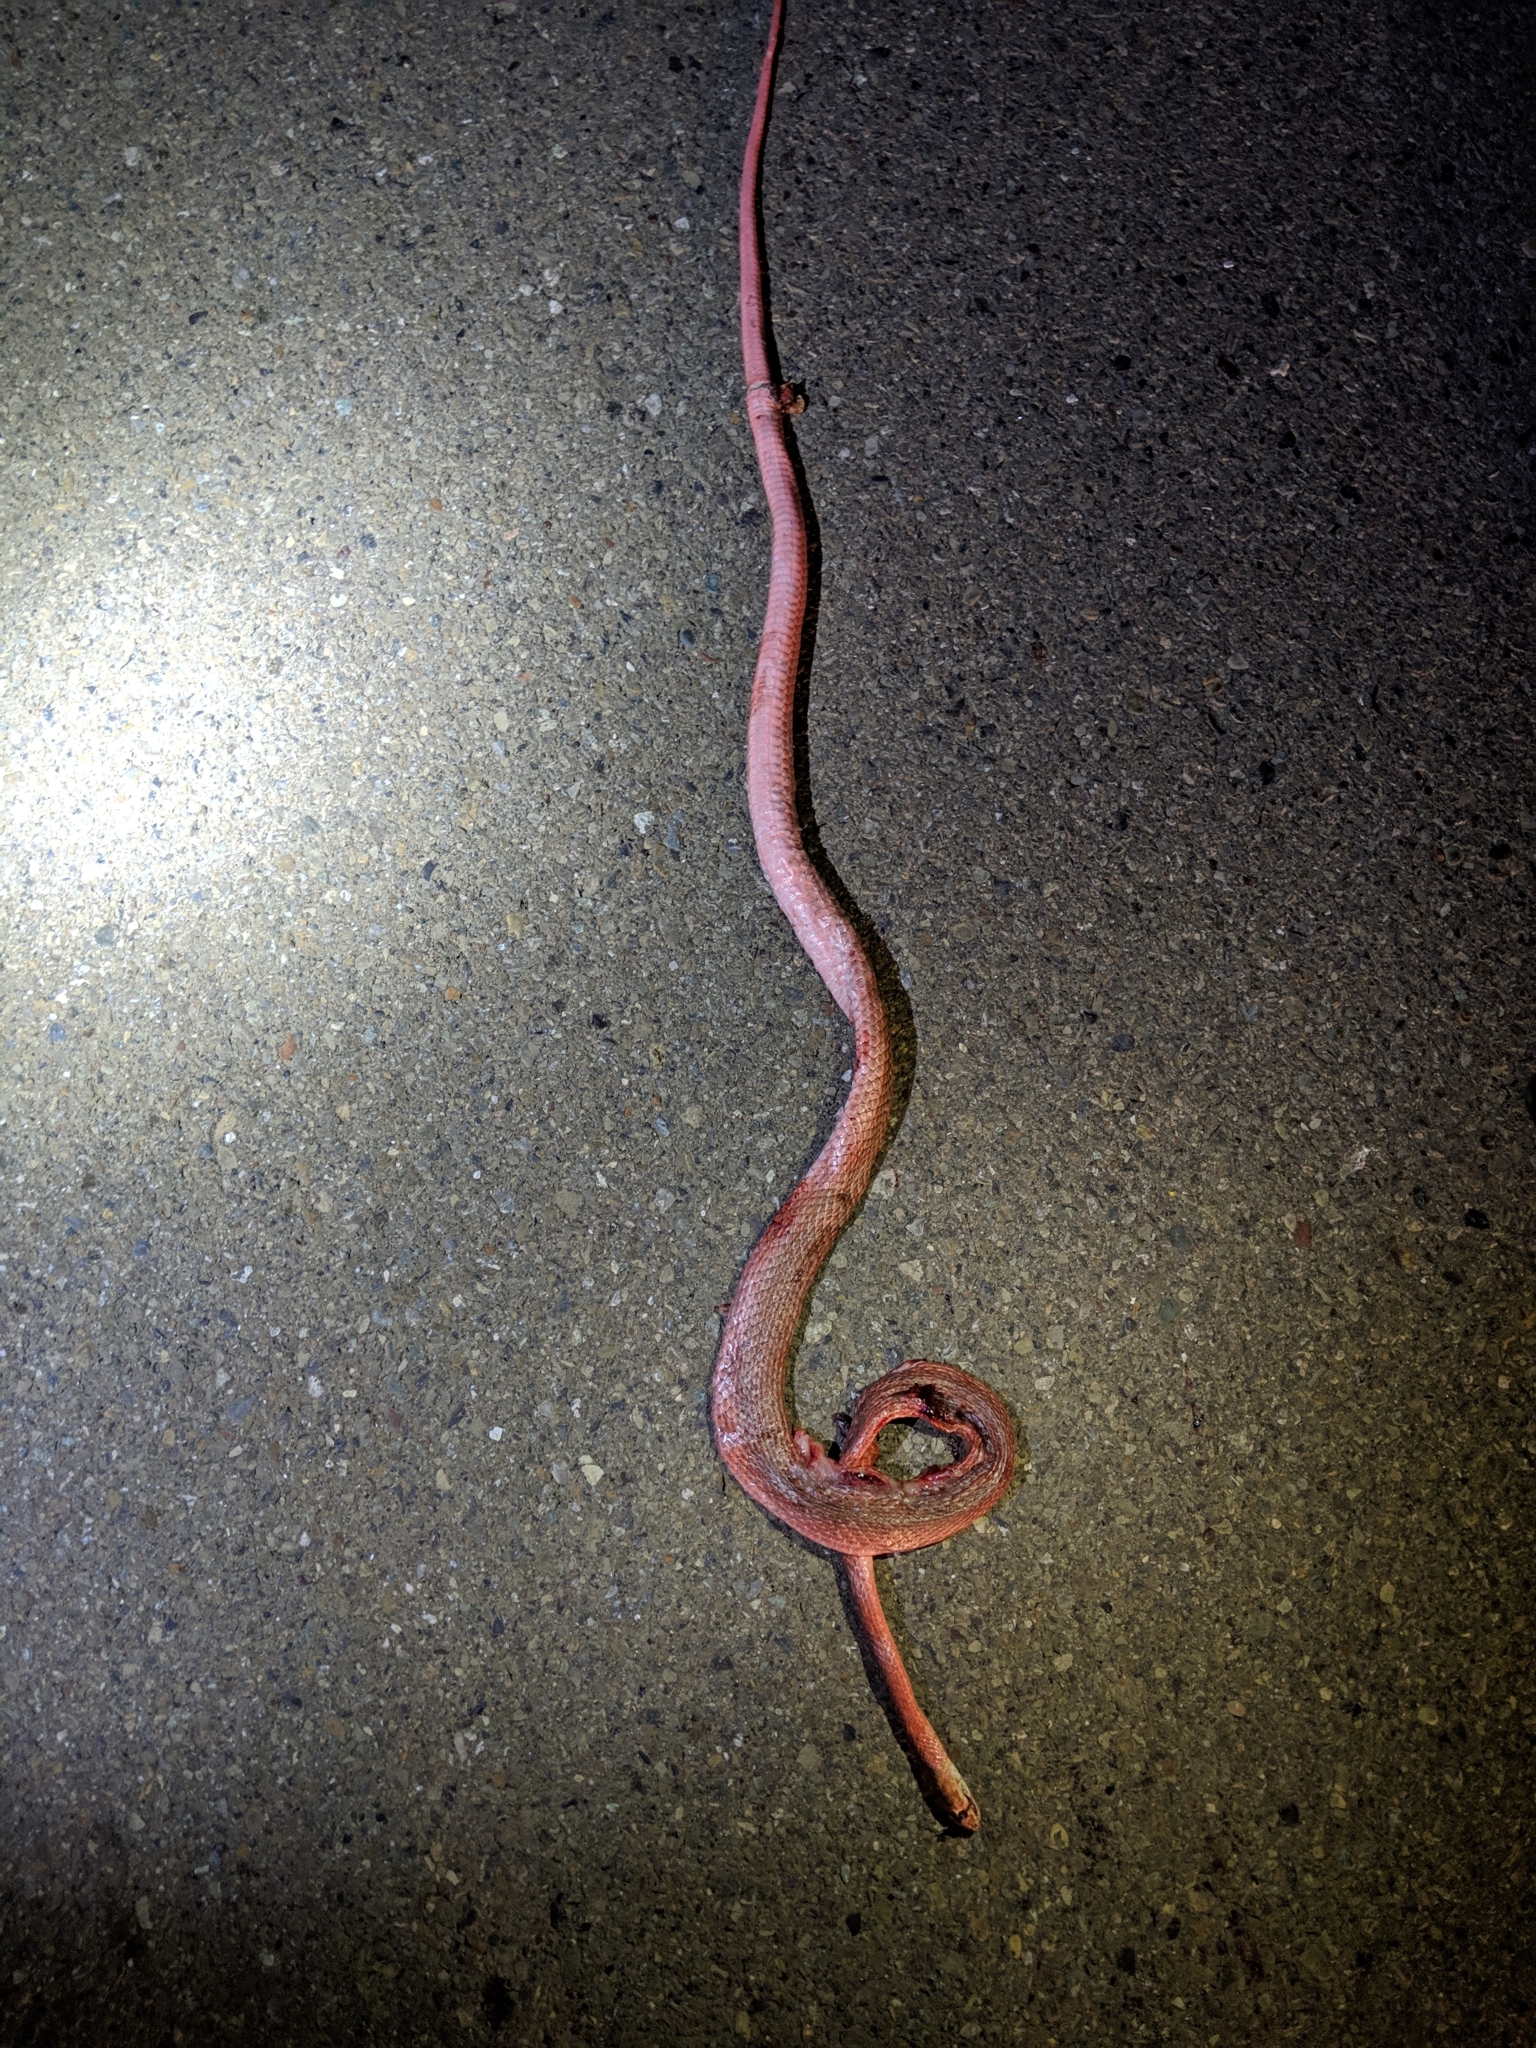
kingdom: Animalia
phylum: Chordata
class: Squamata
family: Colubridae
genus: Masticophis
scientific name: Masticophis flagellum
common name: Coachwhip
